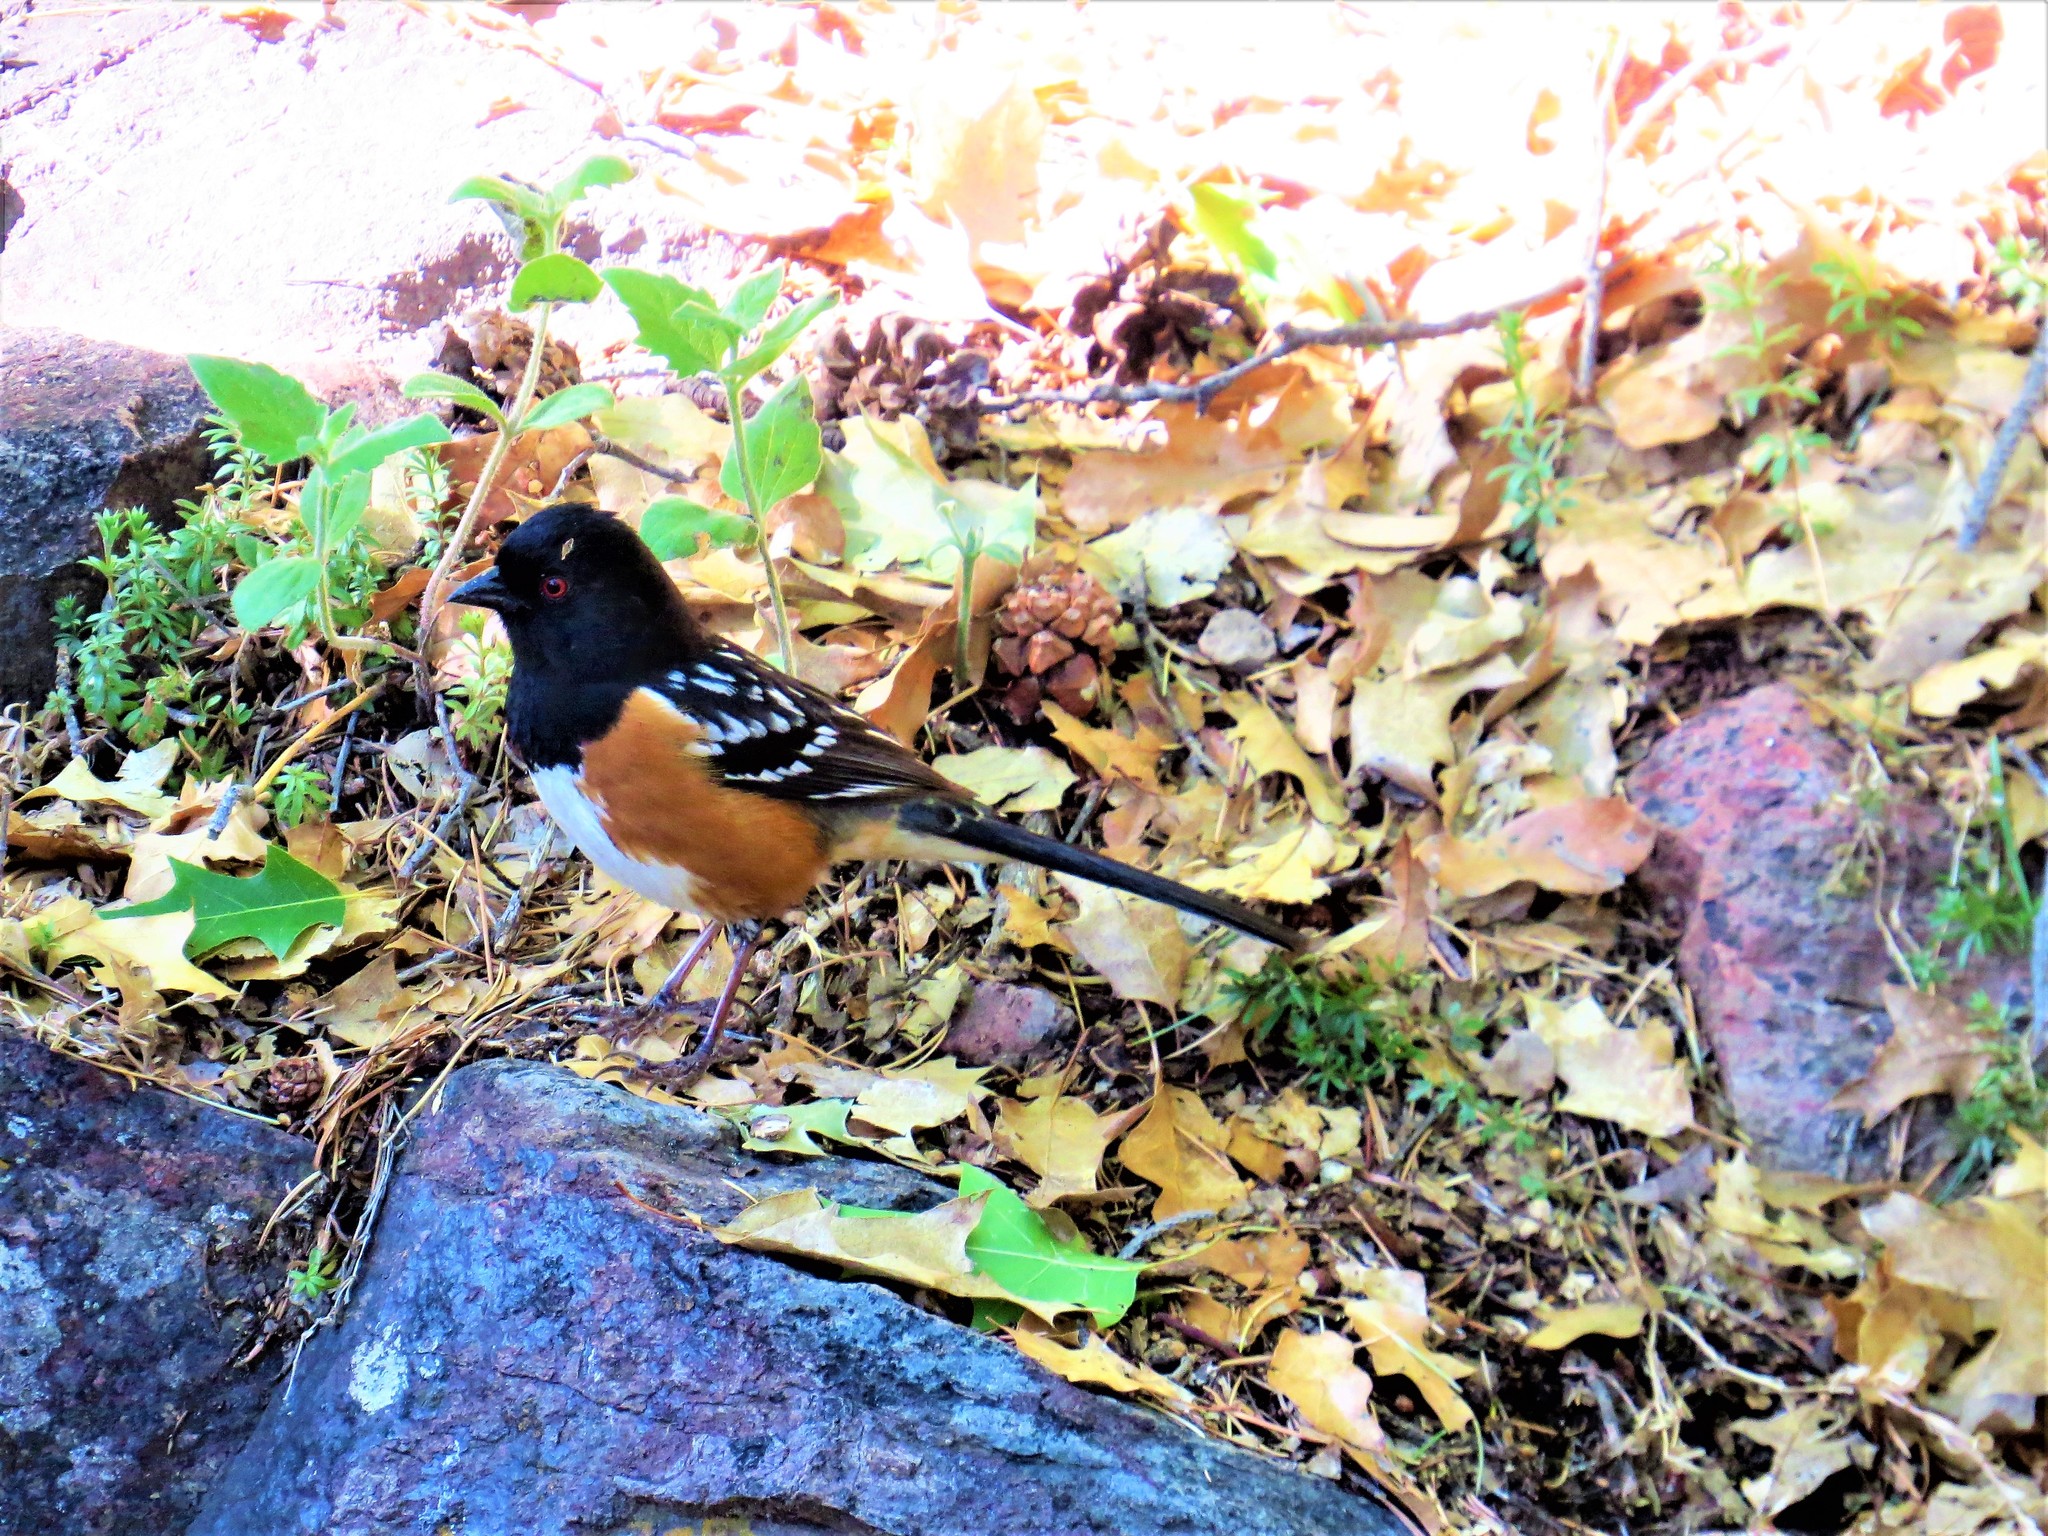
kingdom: Animalia
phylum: Chordata
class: Aves
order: Passeriformes
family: Passerellidae
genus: Pipilo
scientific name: Pipilo maculatus
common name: Spotted towhee
